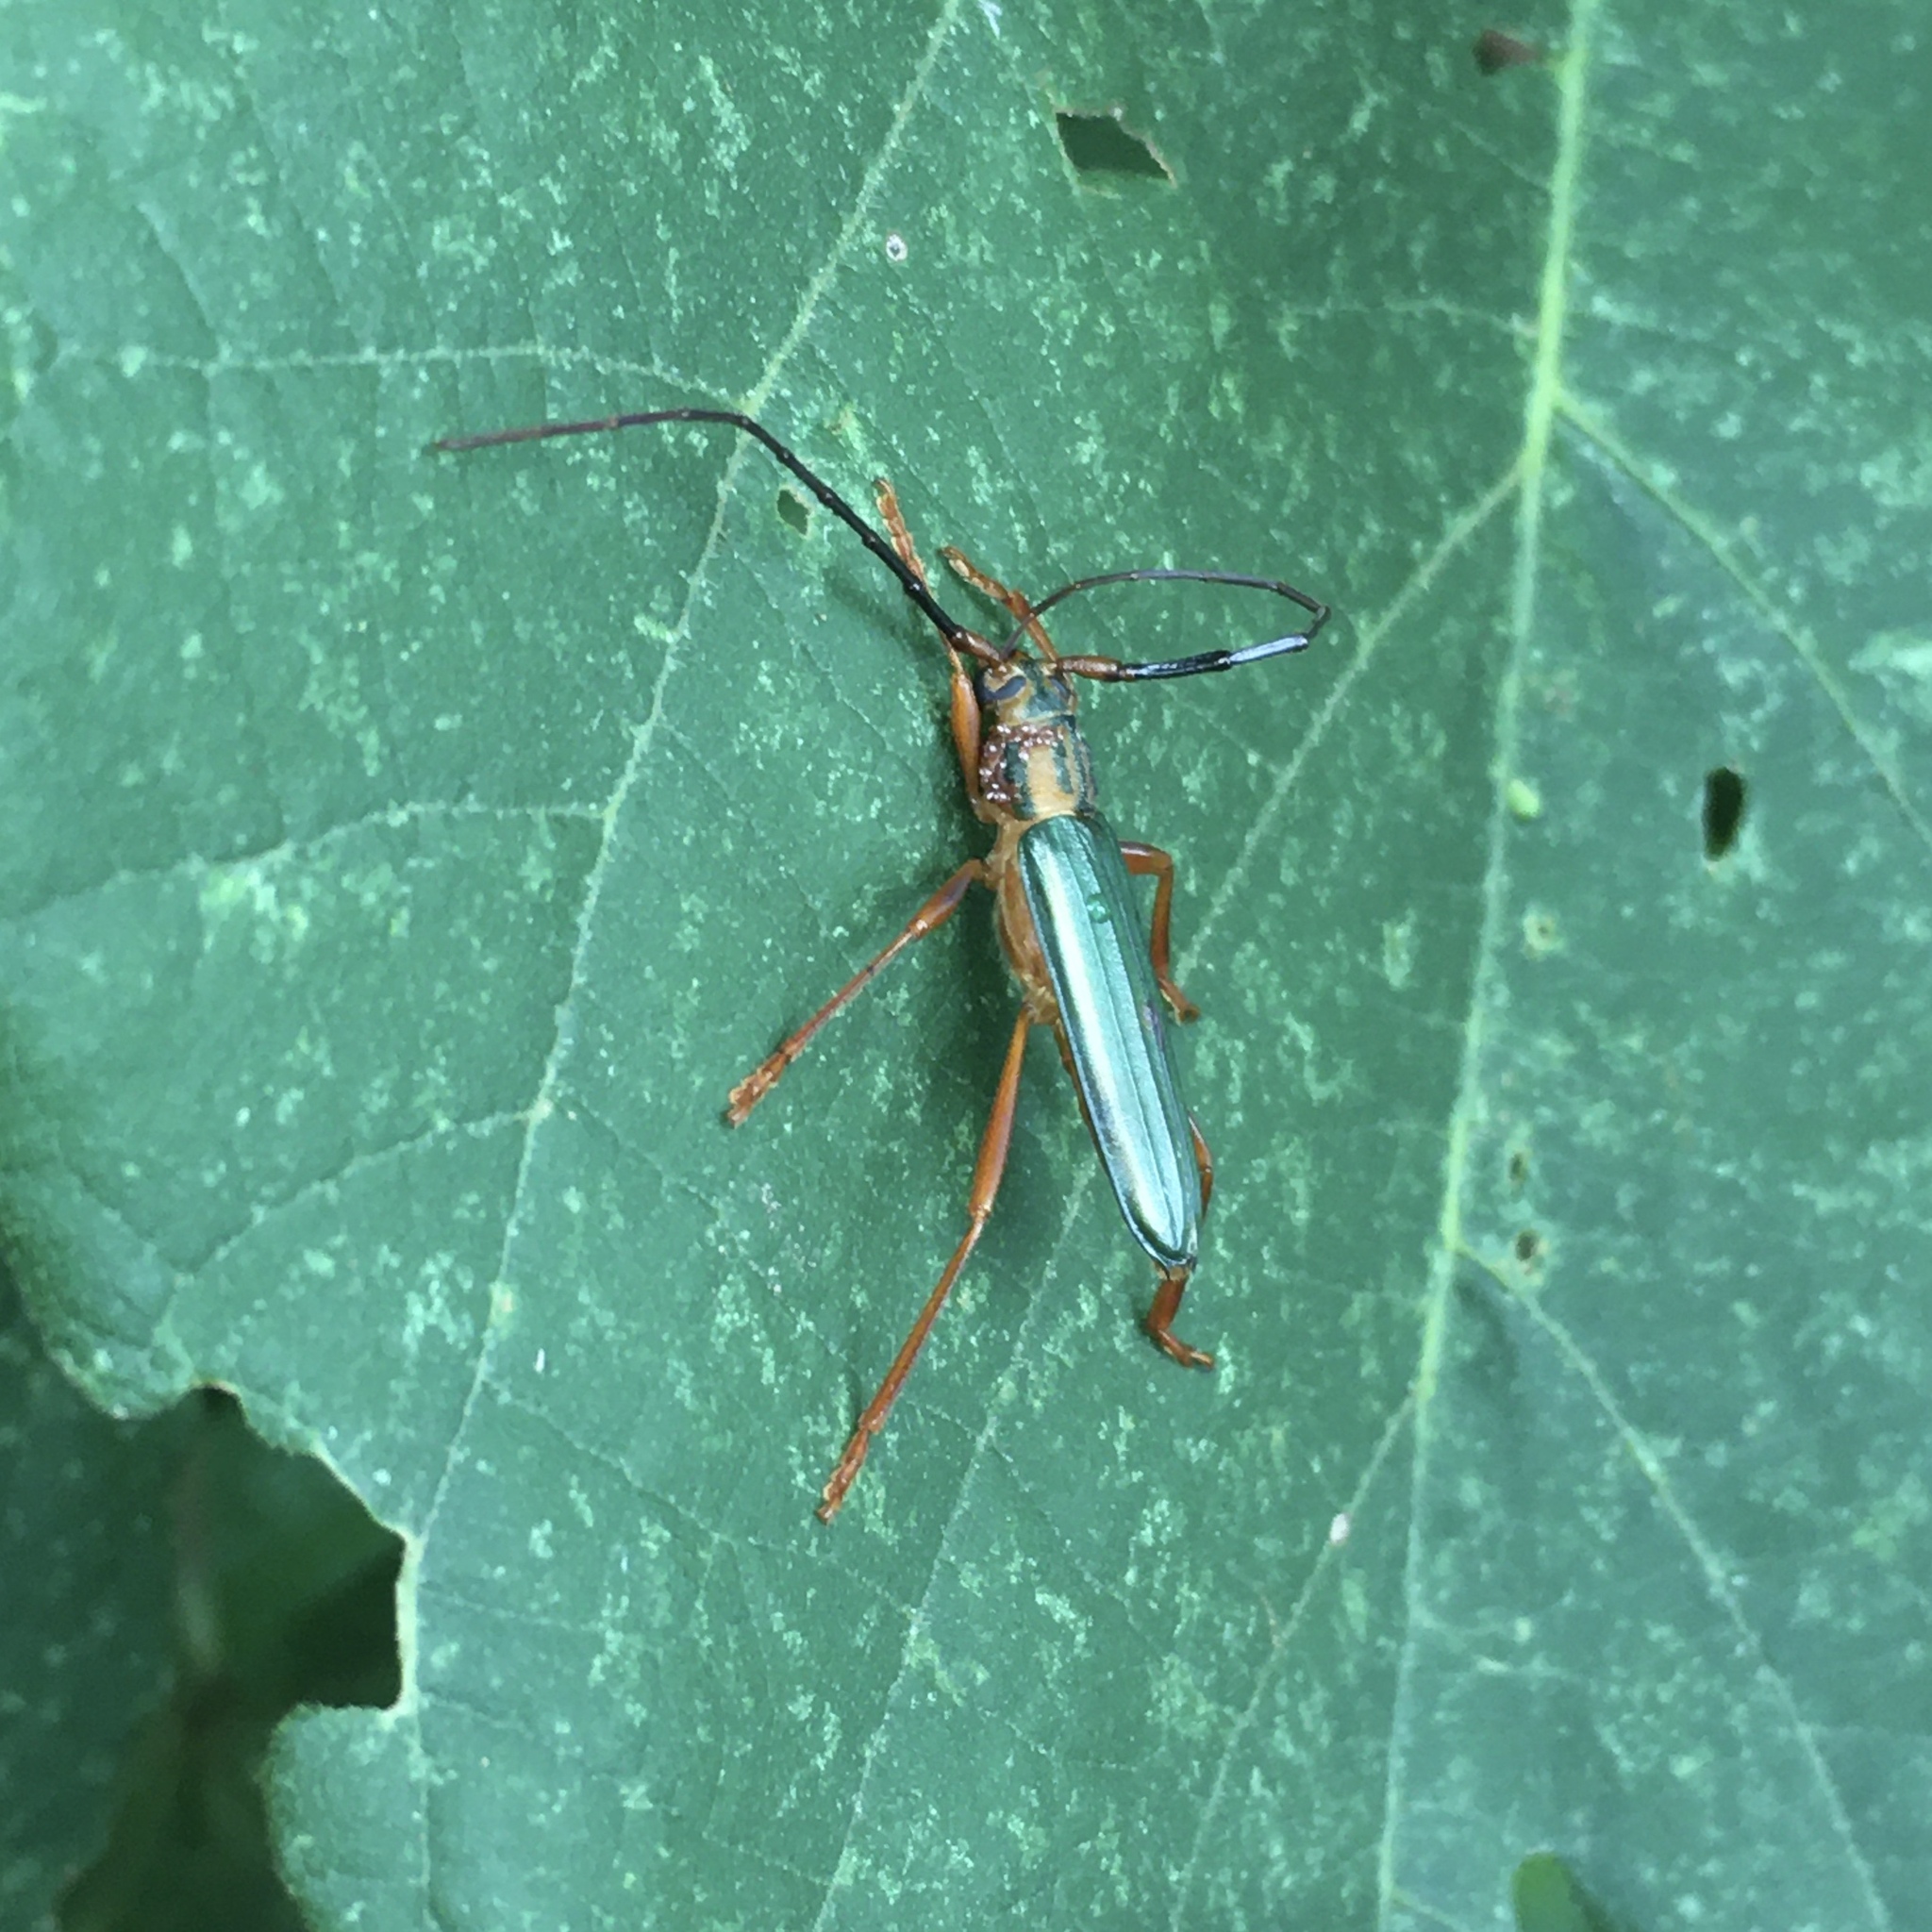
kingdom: Animalia
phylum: Arthropoda
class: Insecta
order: Coleoptera
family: Cerambycidae
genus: Chlorida
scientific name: Chlorida festiva
